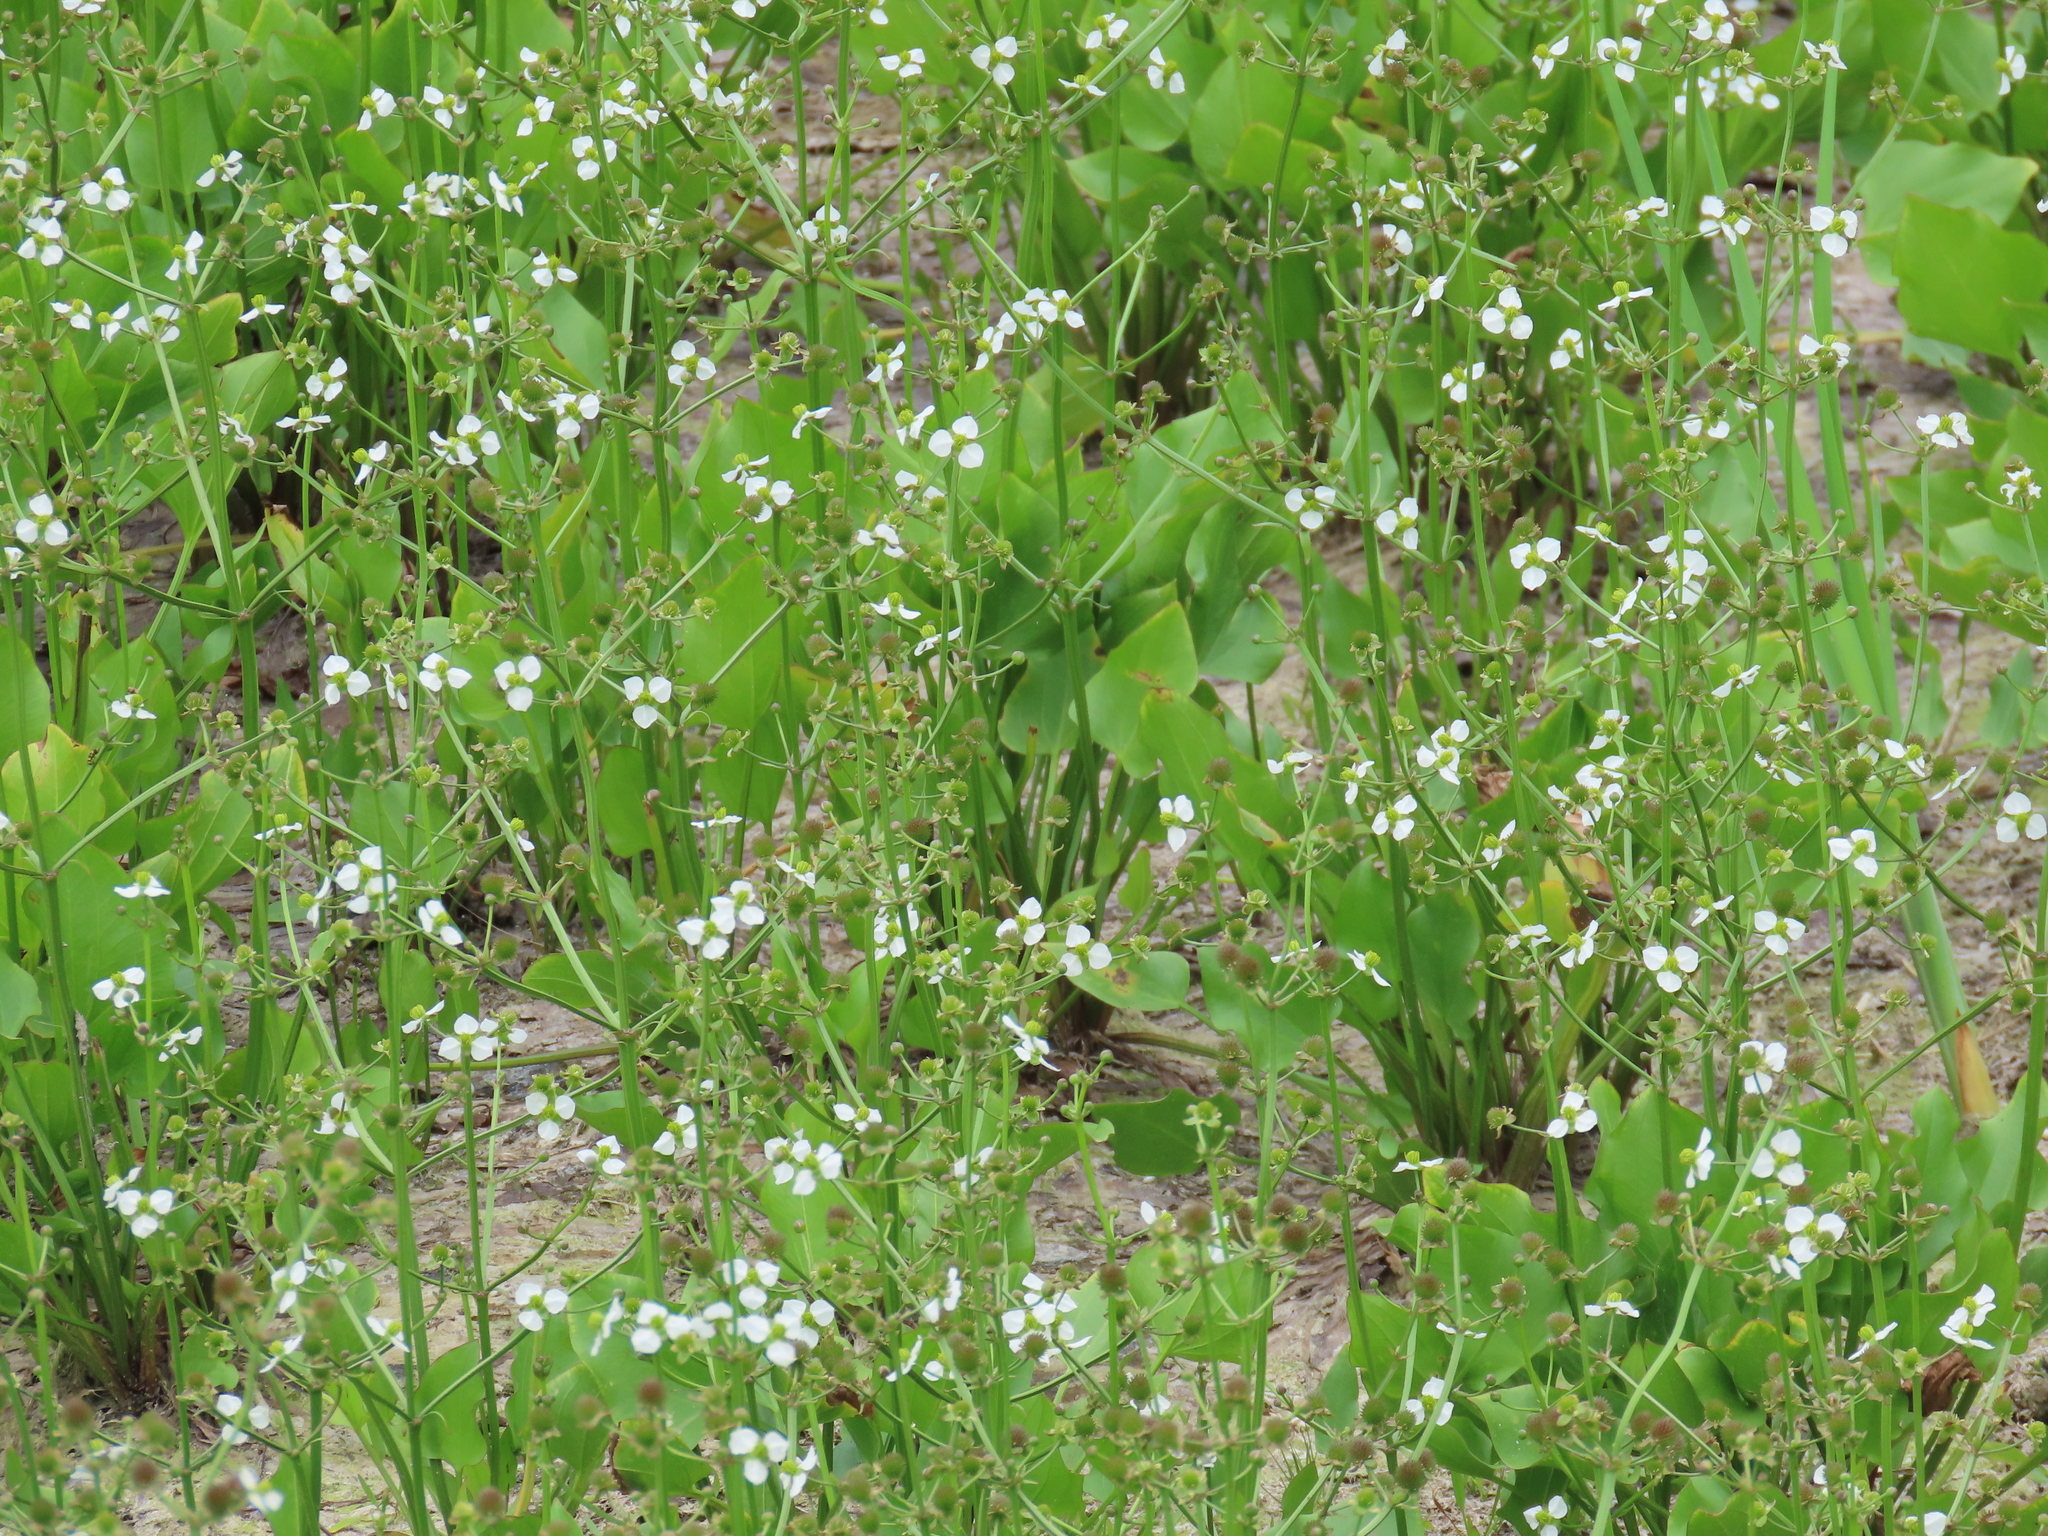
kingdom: Plantae
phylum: Tracheophyta
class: Liliopsida
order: Alismatales
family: Alismataceae
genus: Echinodorus
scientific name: Echinodorus berteroi
